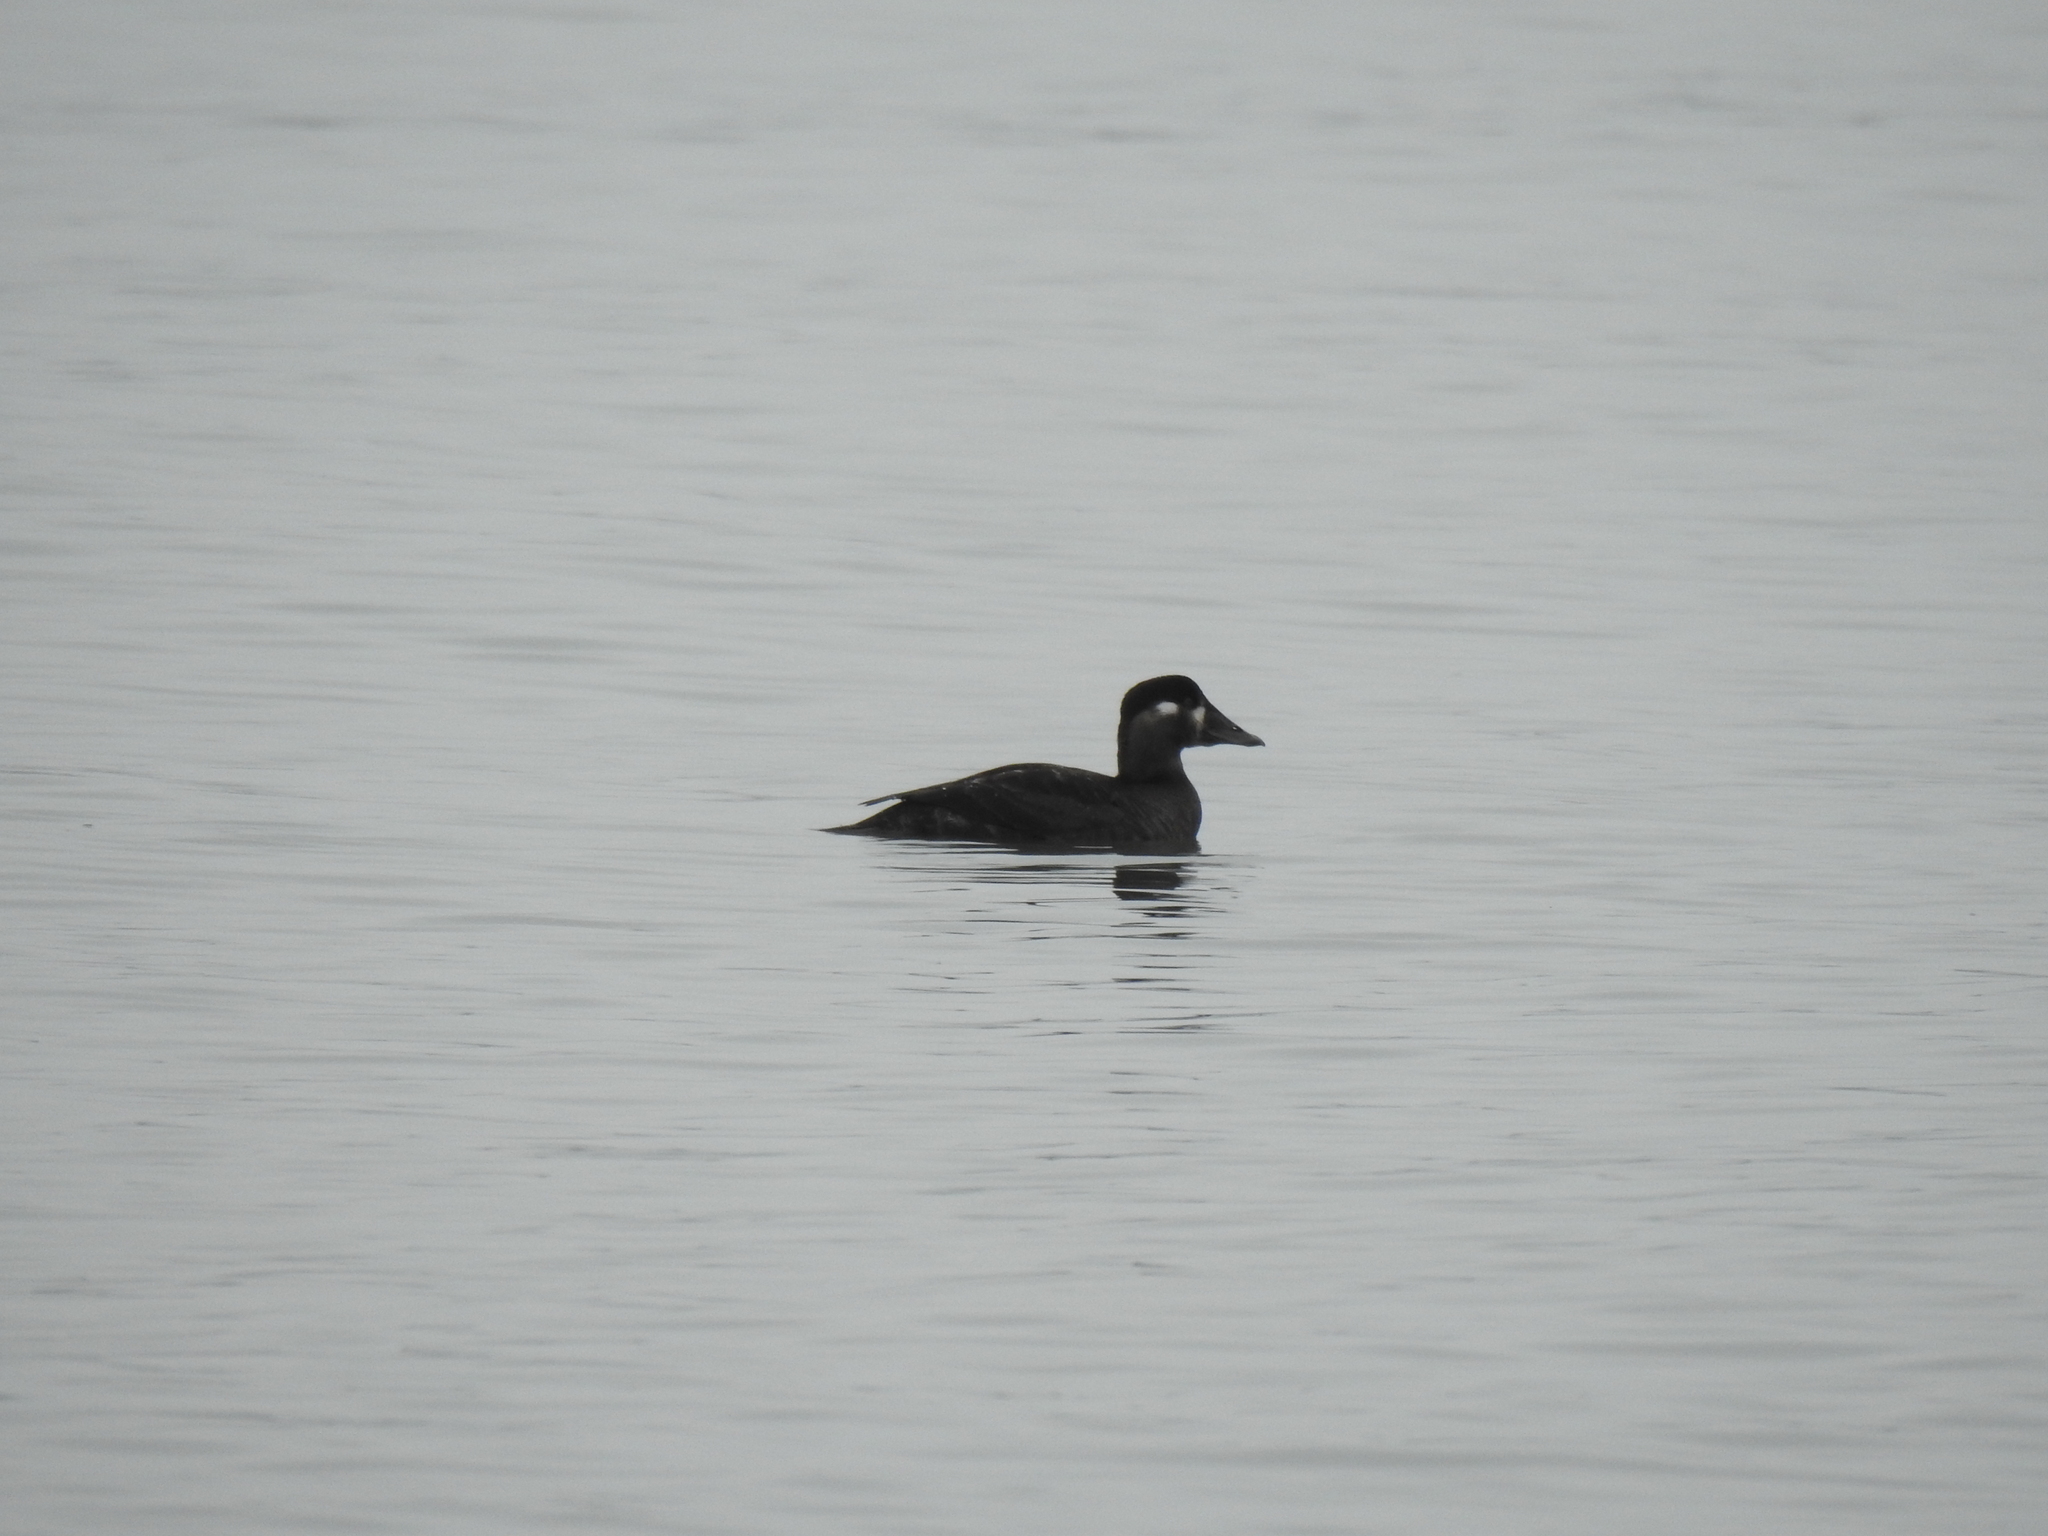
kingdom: Animalia
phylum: Chordata
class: Aves
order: Anseriformes
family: Anatidae
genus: Melanitta
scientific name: Melanitta perspicillata
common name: Surf scoter
